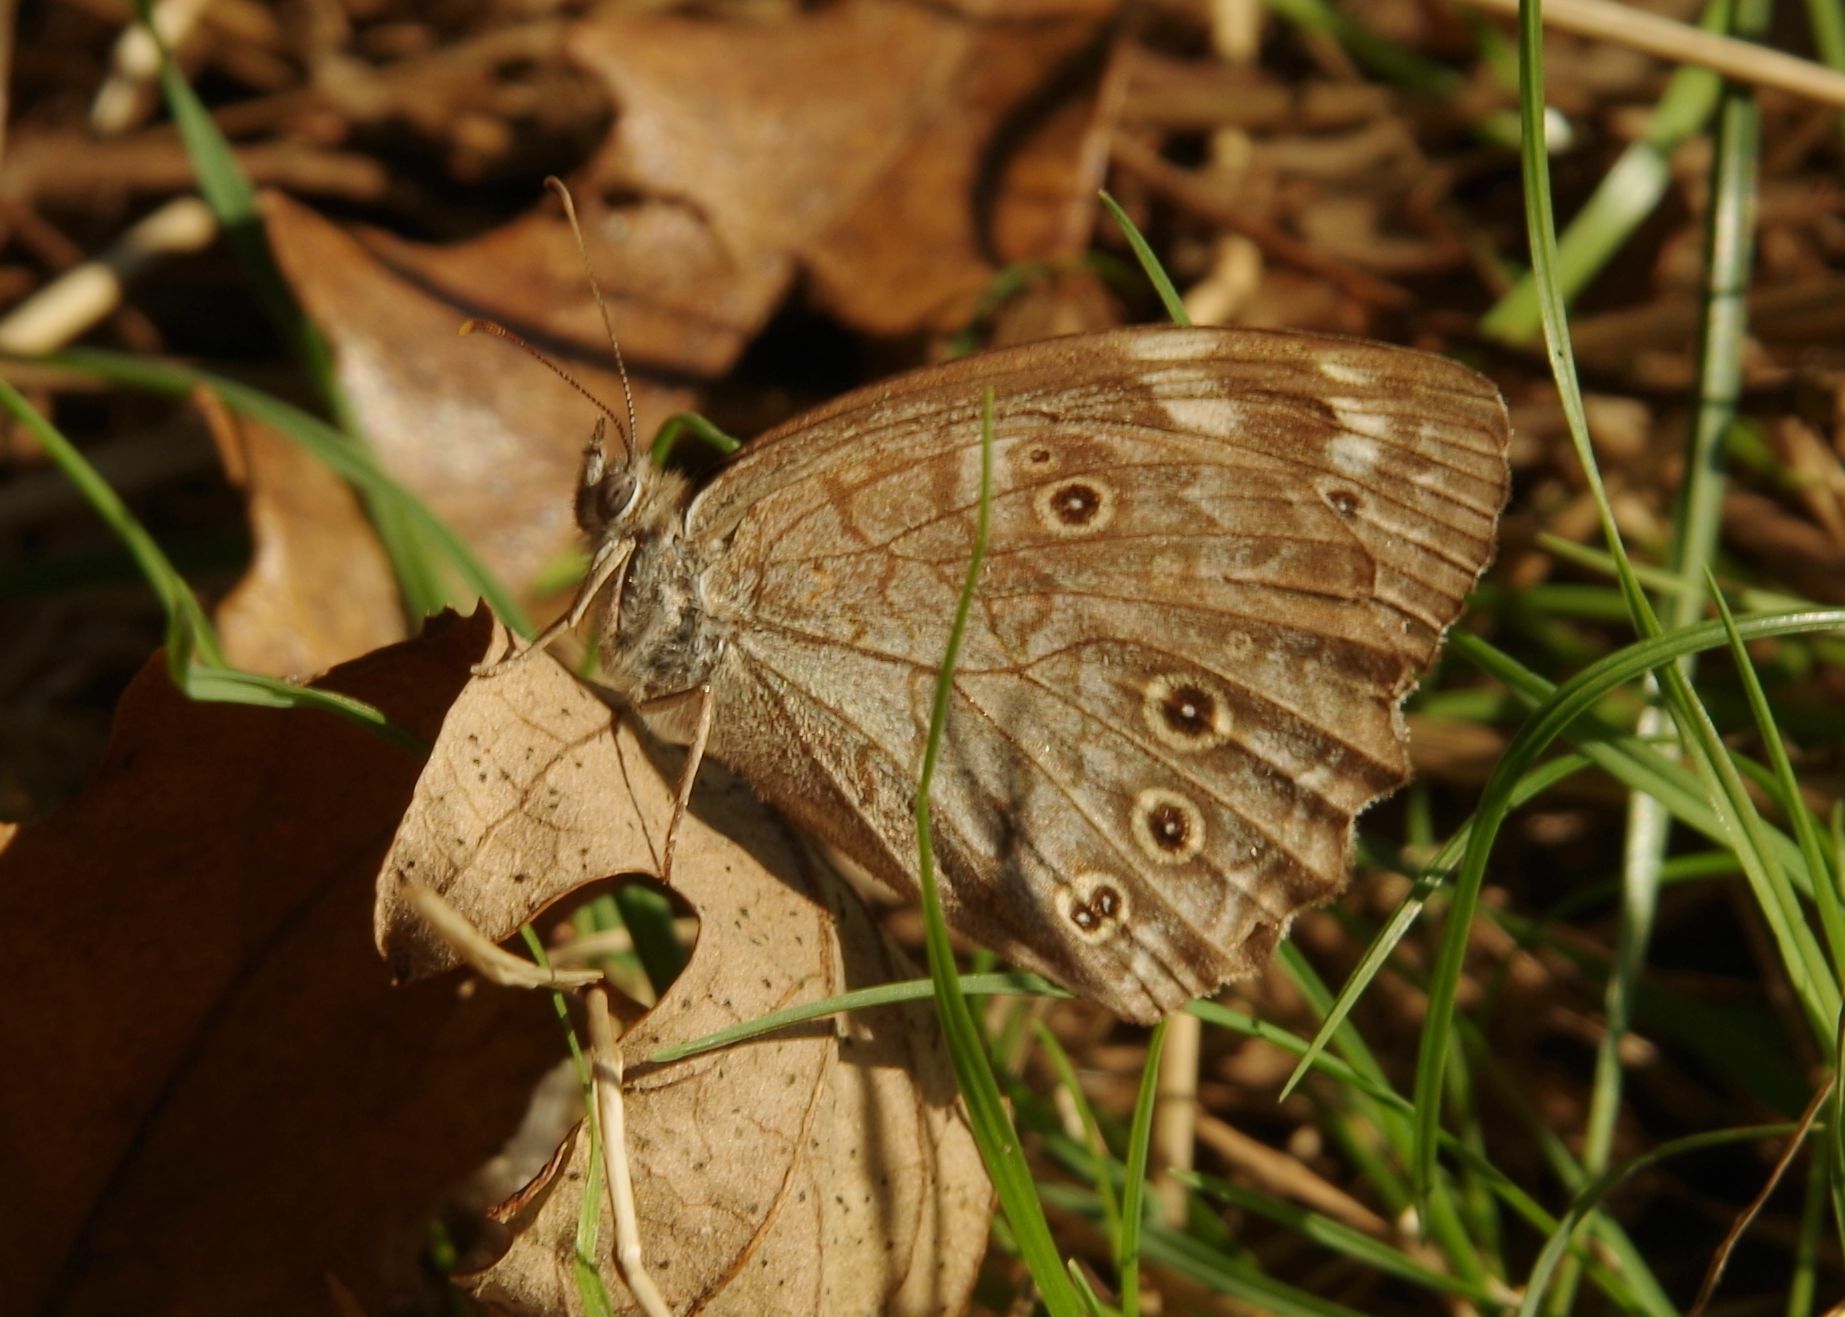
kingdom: Animalia
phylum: Arthropoda
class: Insecta
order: Lepidoptera
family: Nymphalidae
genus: Kirinia
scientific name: Kirinia roxelana
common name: Lattice brown
